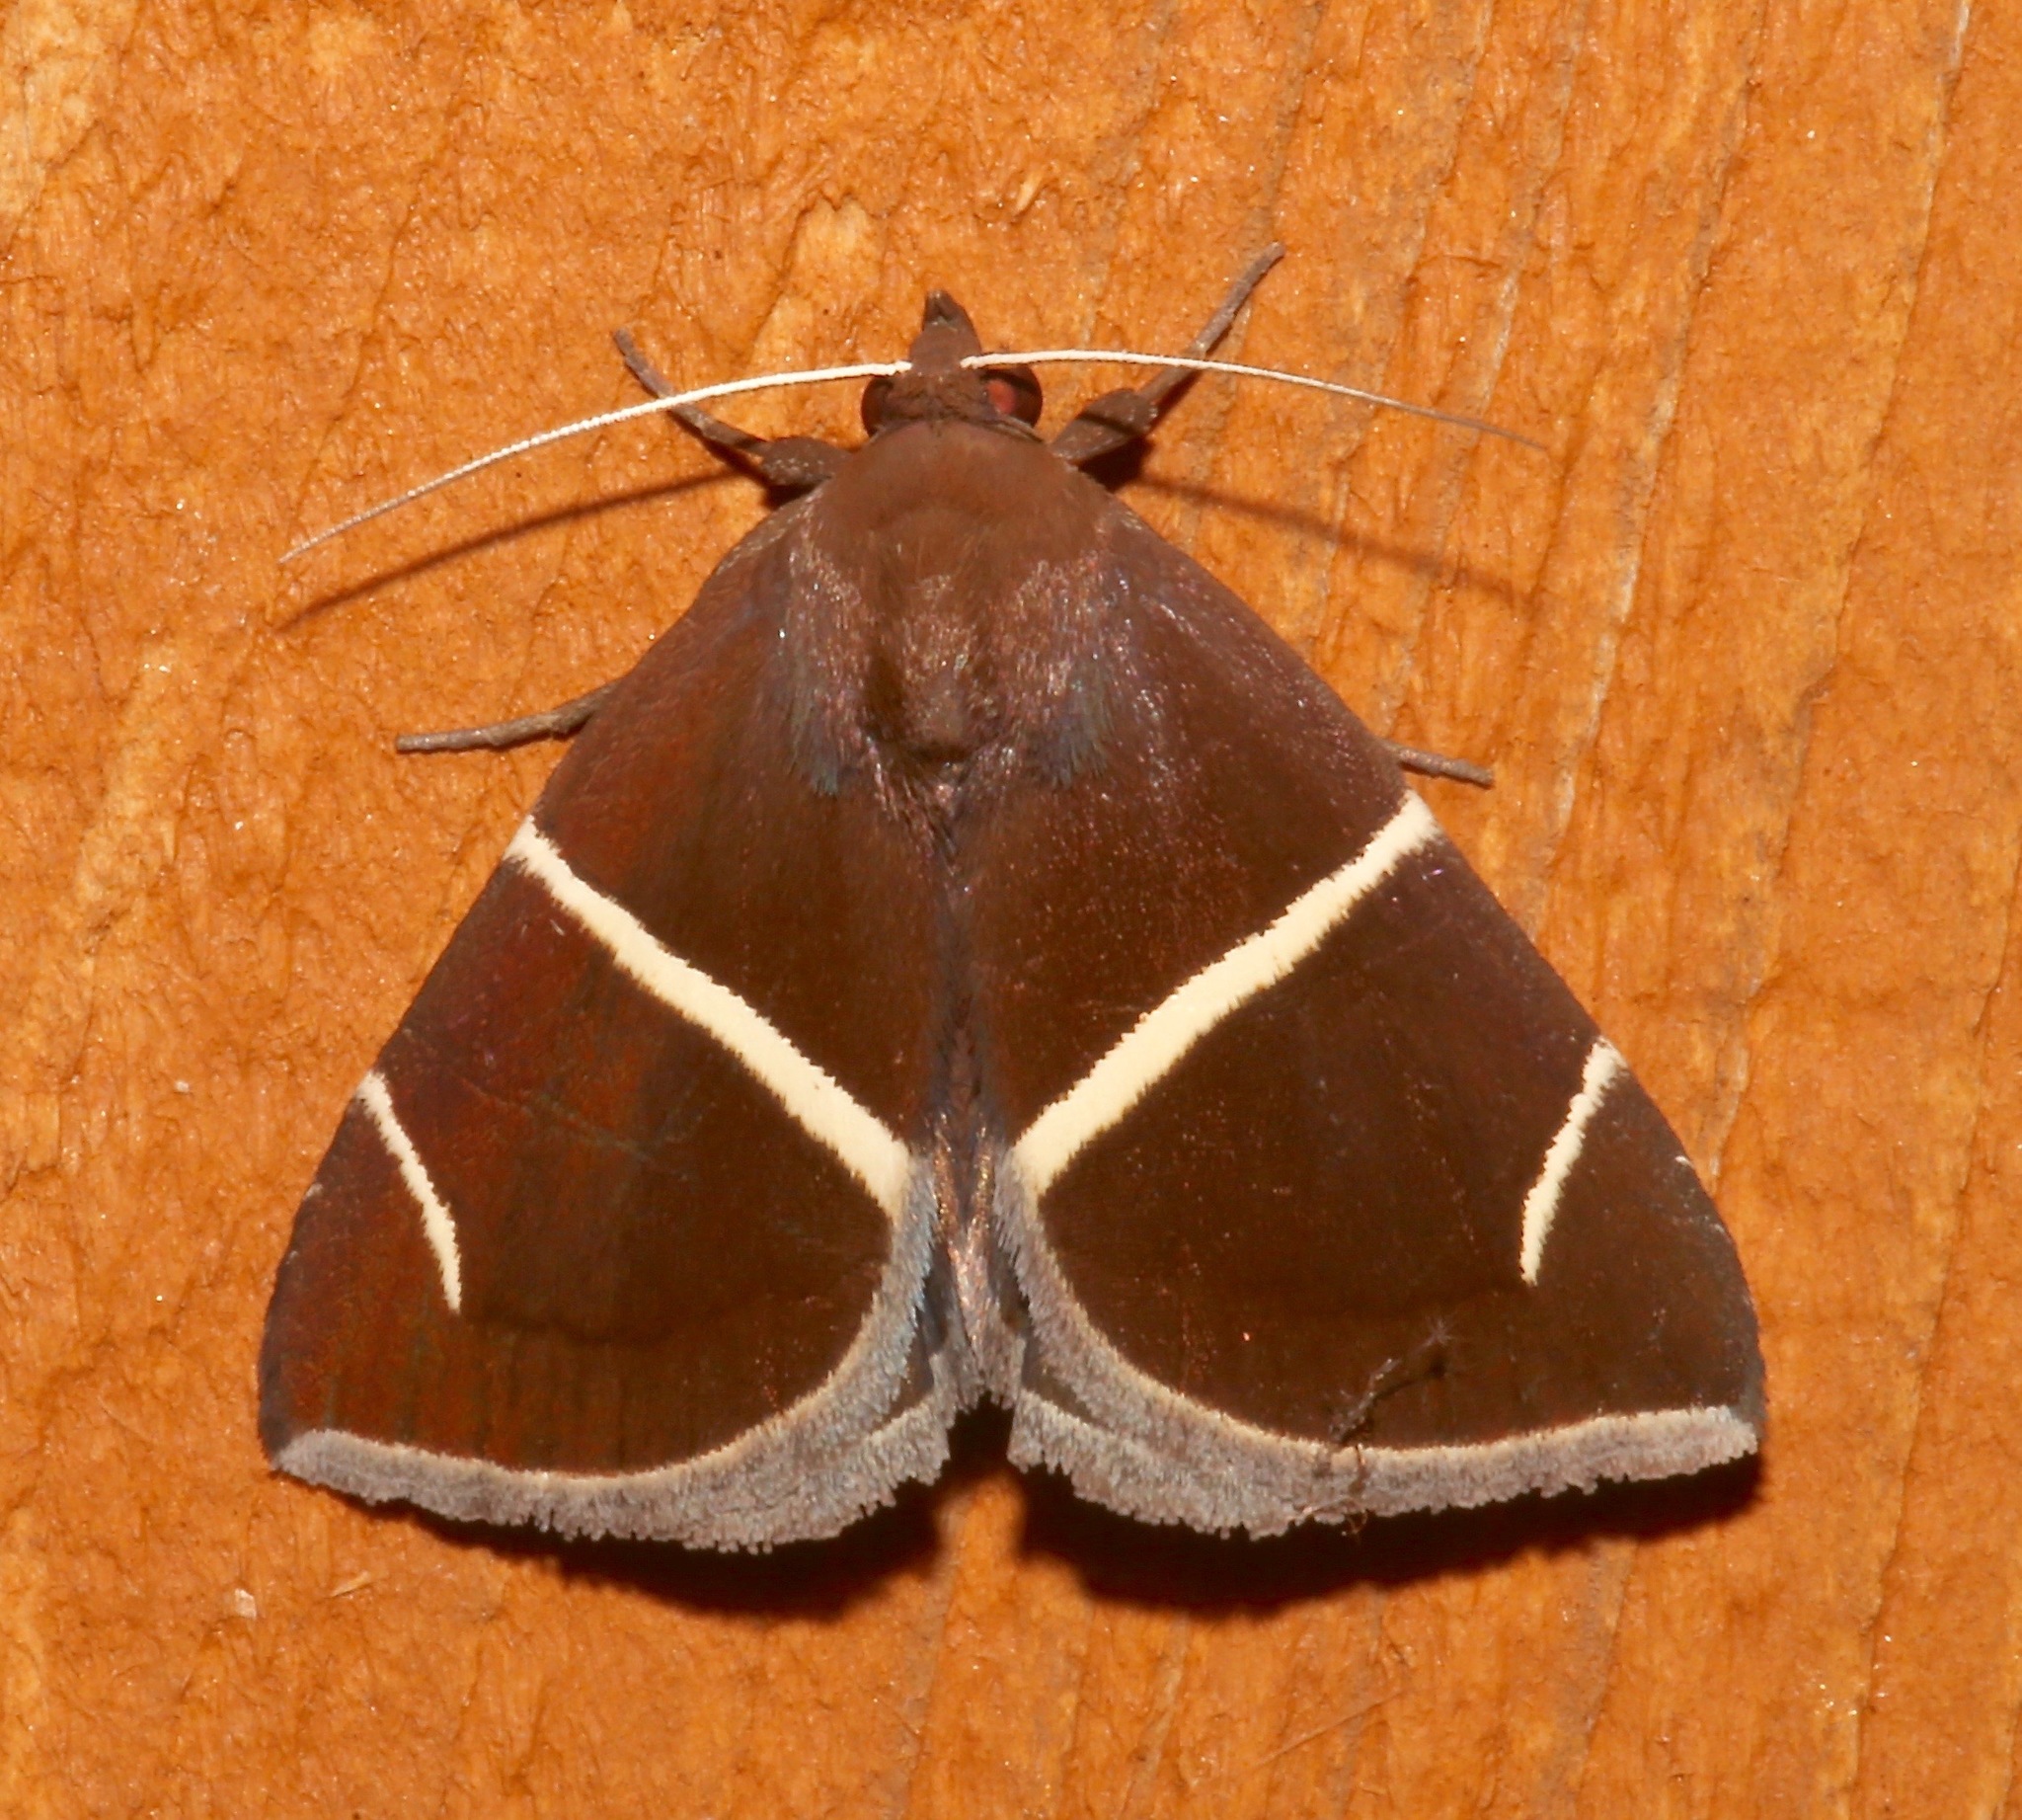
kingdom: Animalia
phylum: Arthropoda
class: Insecta
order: Lepidoptera
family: Erebidae
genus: Argyrostrotis
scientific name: Argyrostrotis anilis
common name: Short-lined chocolate
